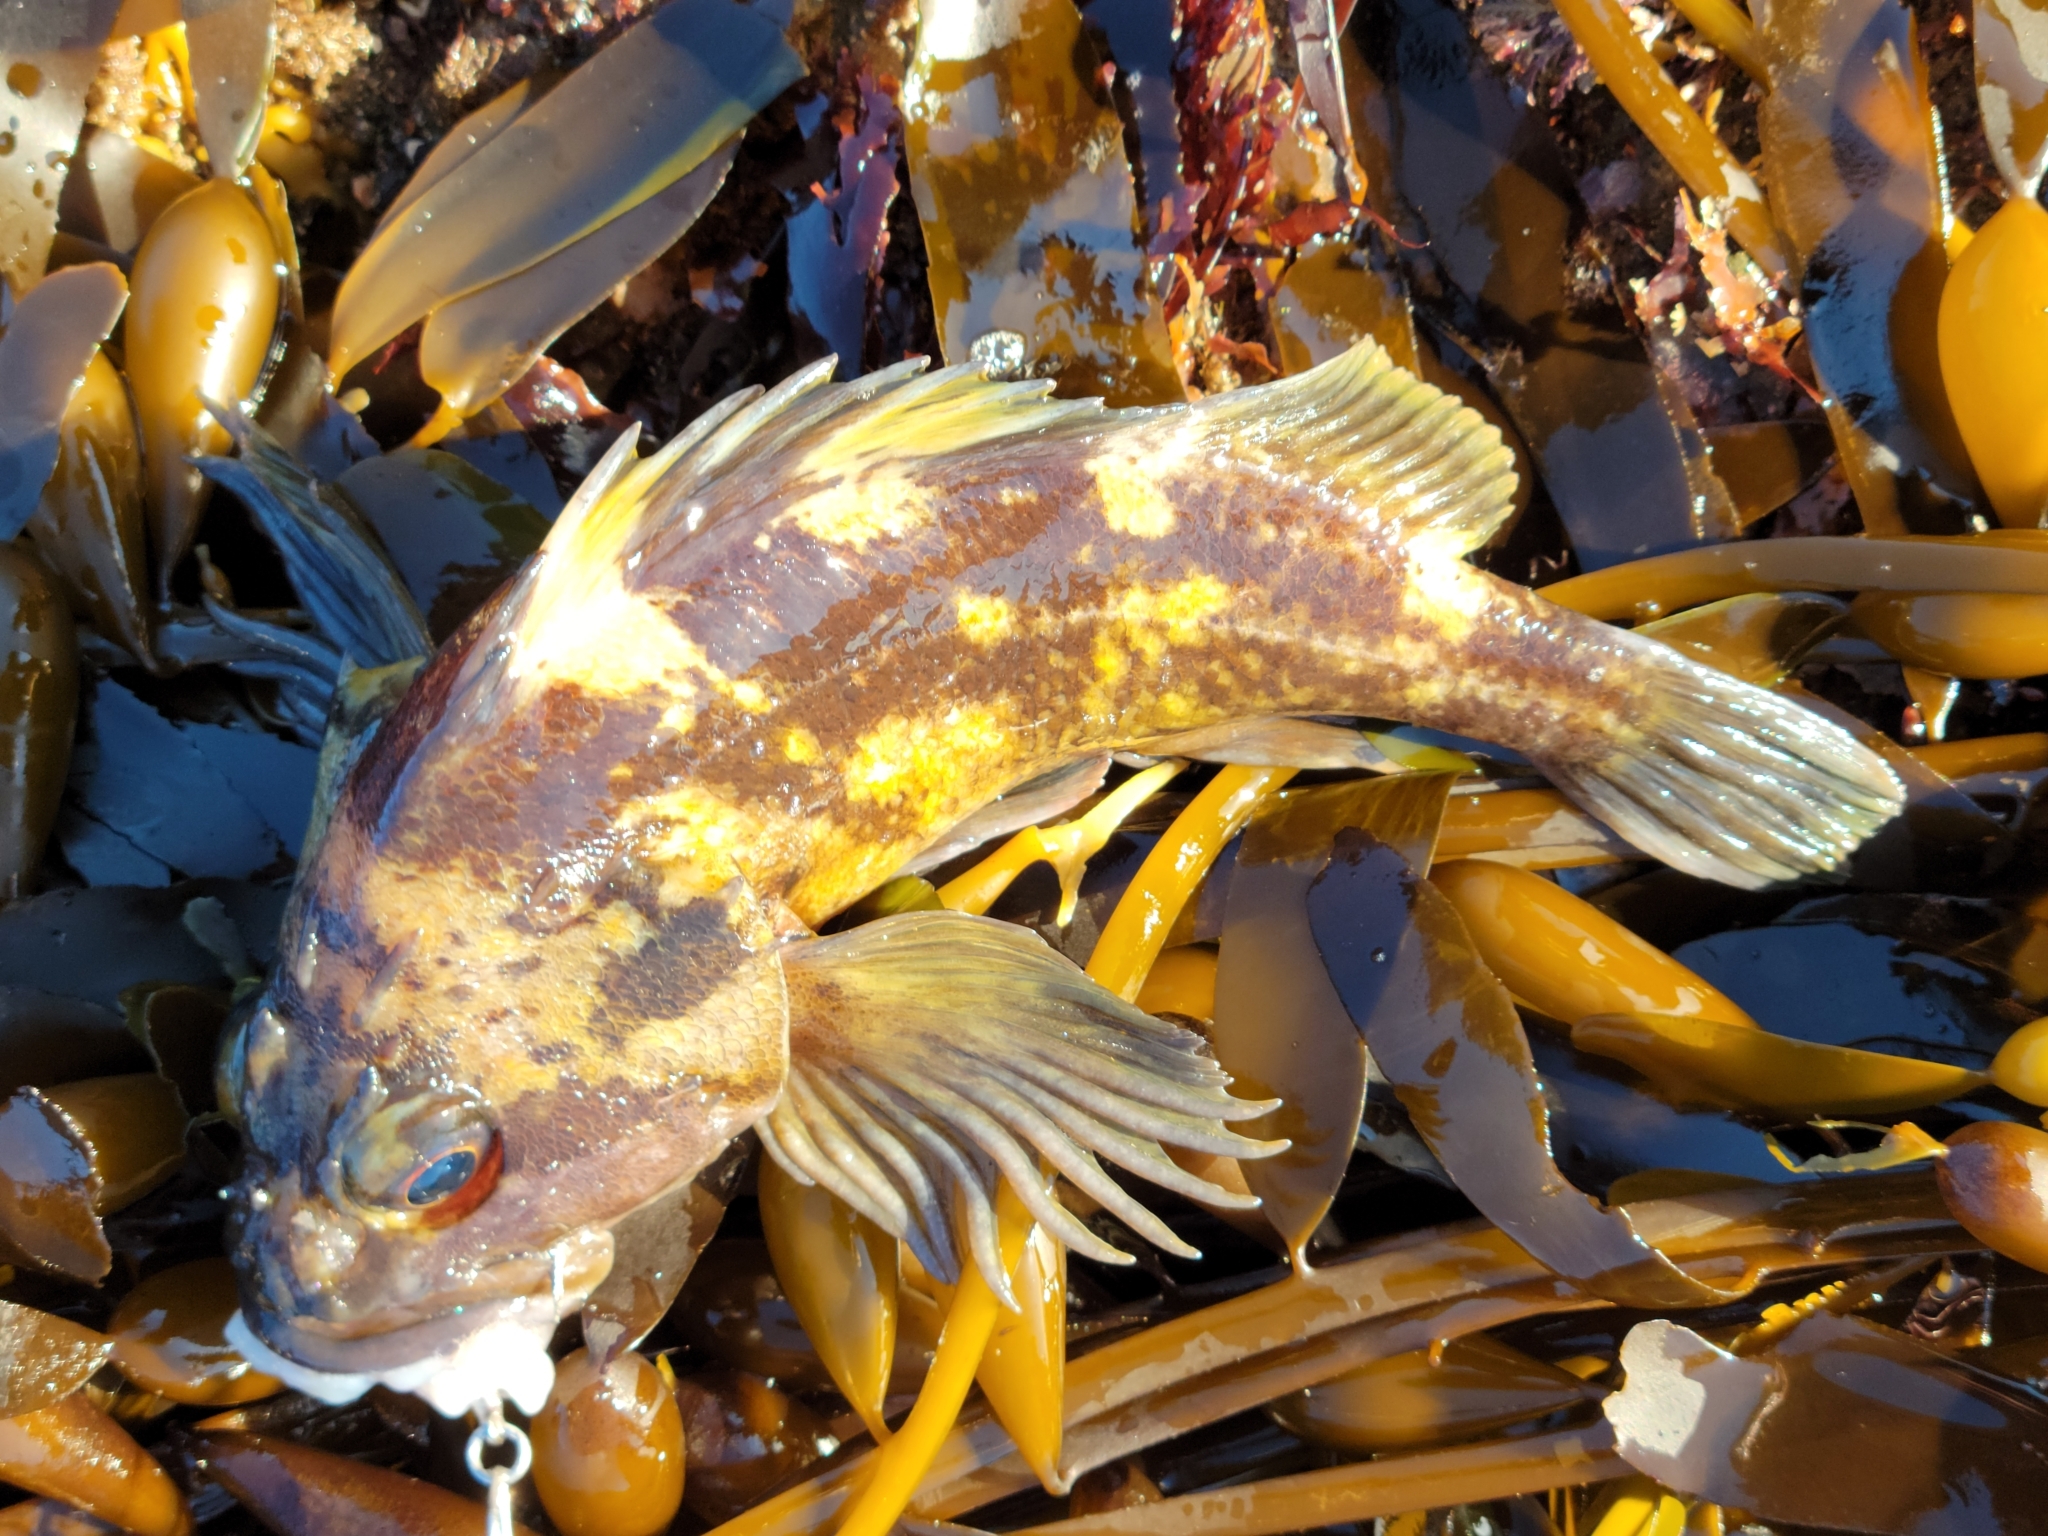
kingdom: Animalia
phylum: Chordata
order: Scorpaeniformes
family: Sebastidae
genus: Sebastes
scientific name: Sebastes chrysomelas
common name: Black-and-yellow rockfish
